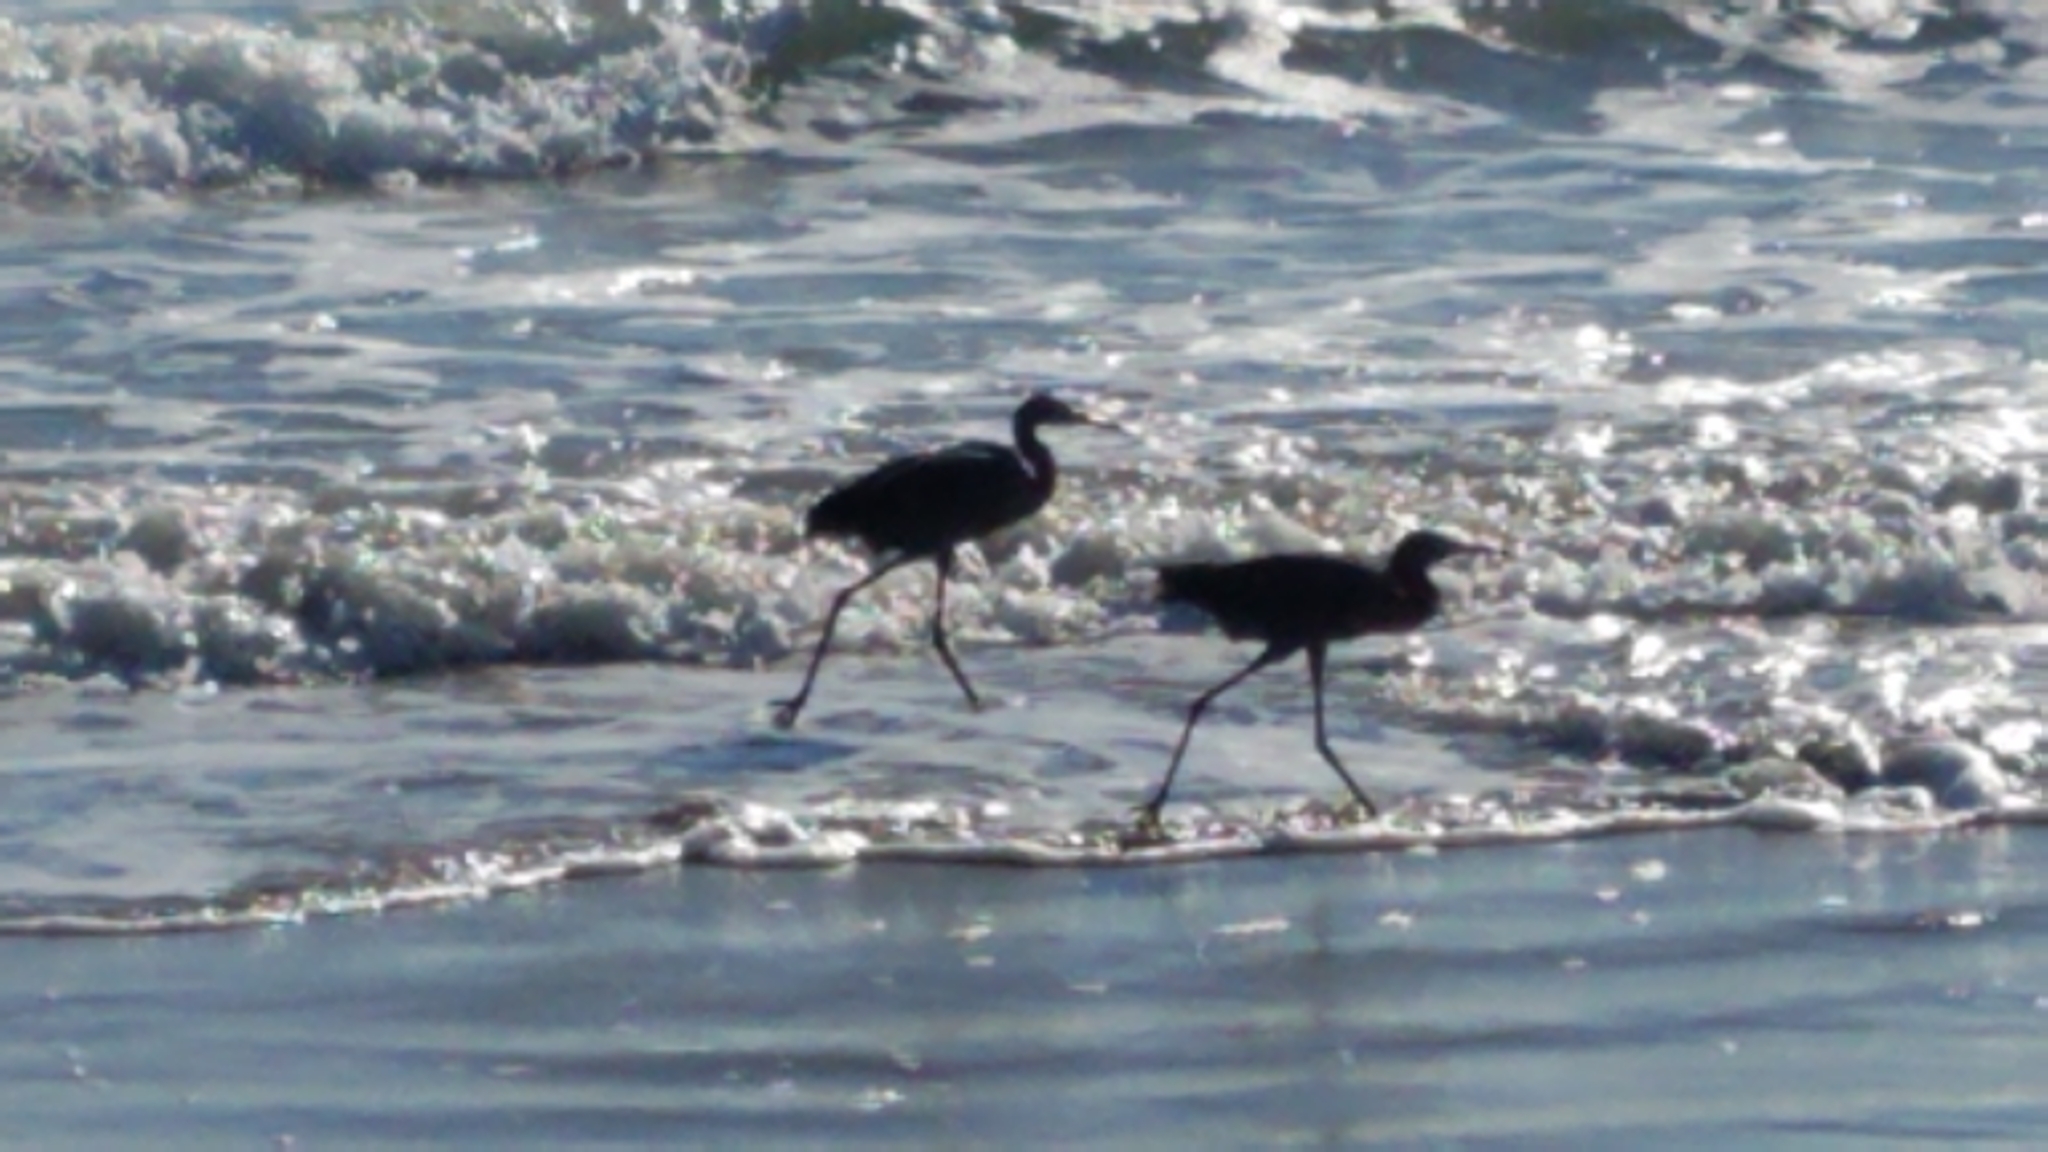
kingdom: Animalia
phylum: Chordata
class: Aves
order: Pelecaniformes
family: Ardeidae
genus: Egretta
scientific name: Egretta rufescens
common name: Reddish egret
